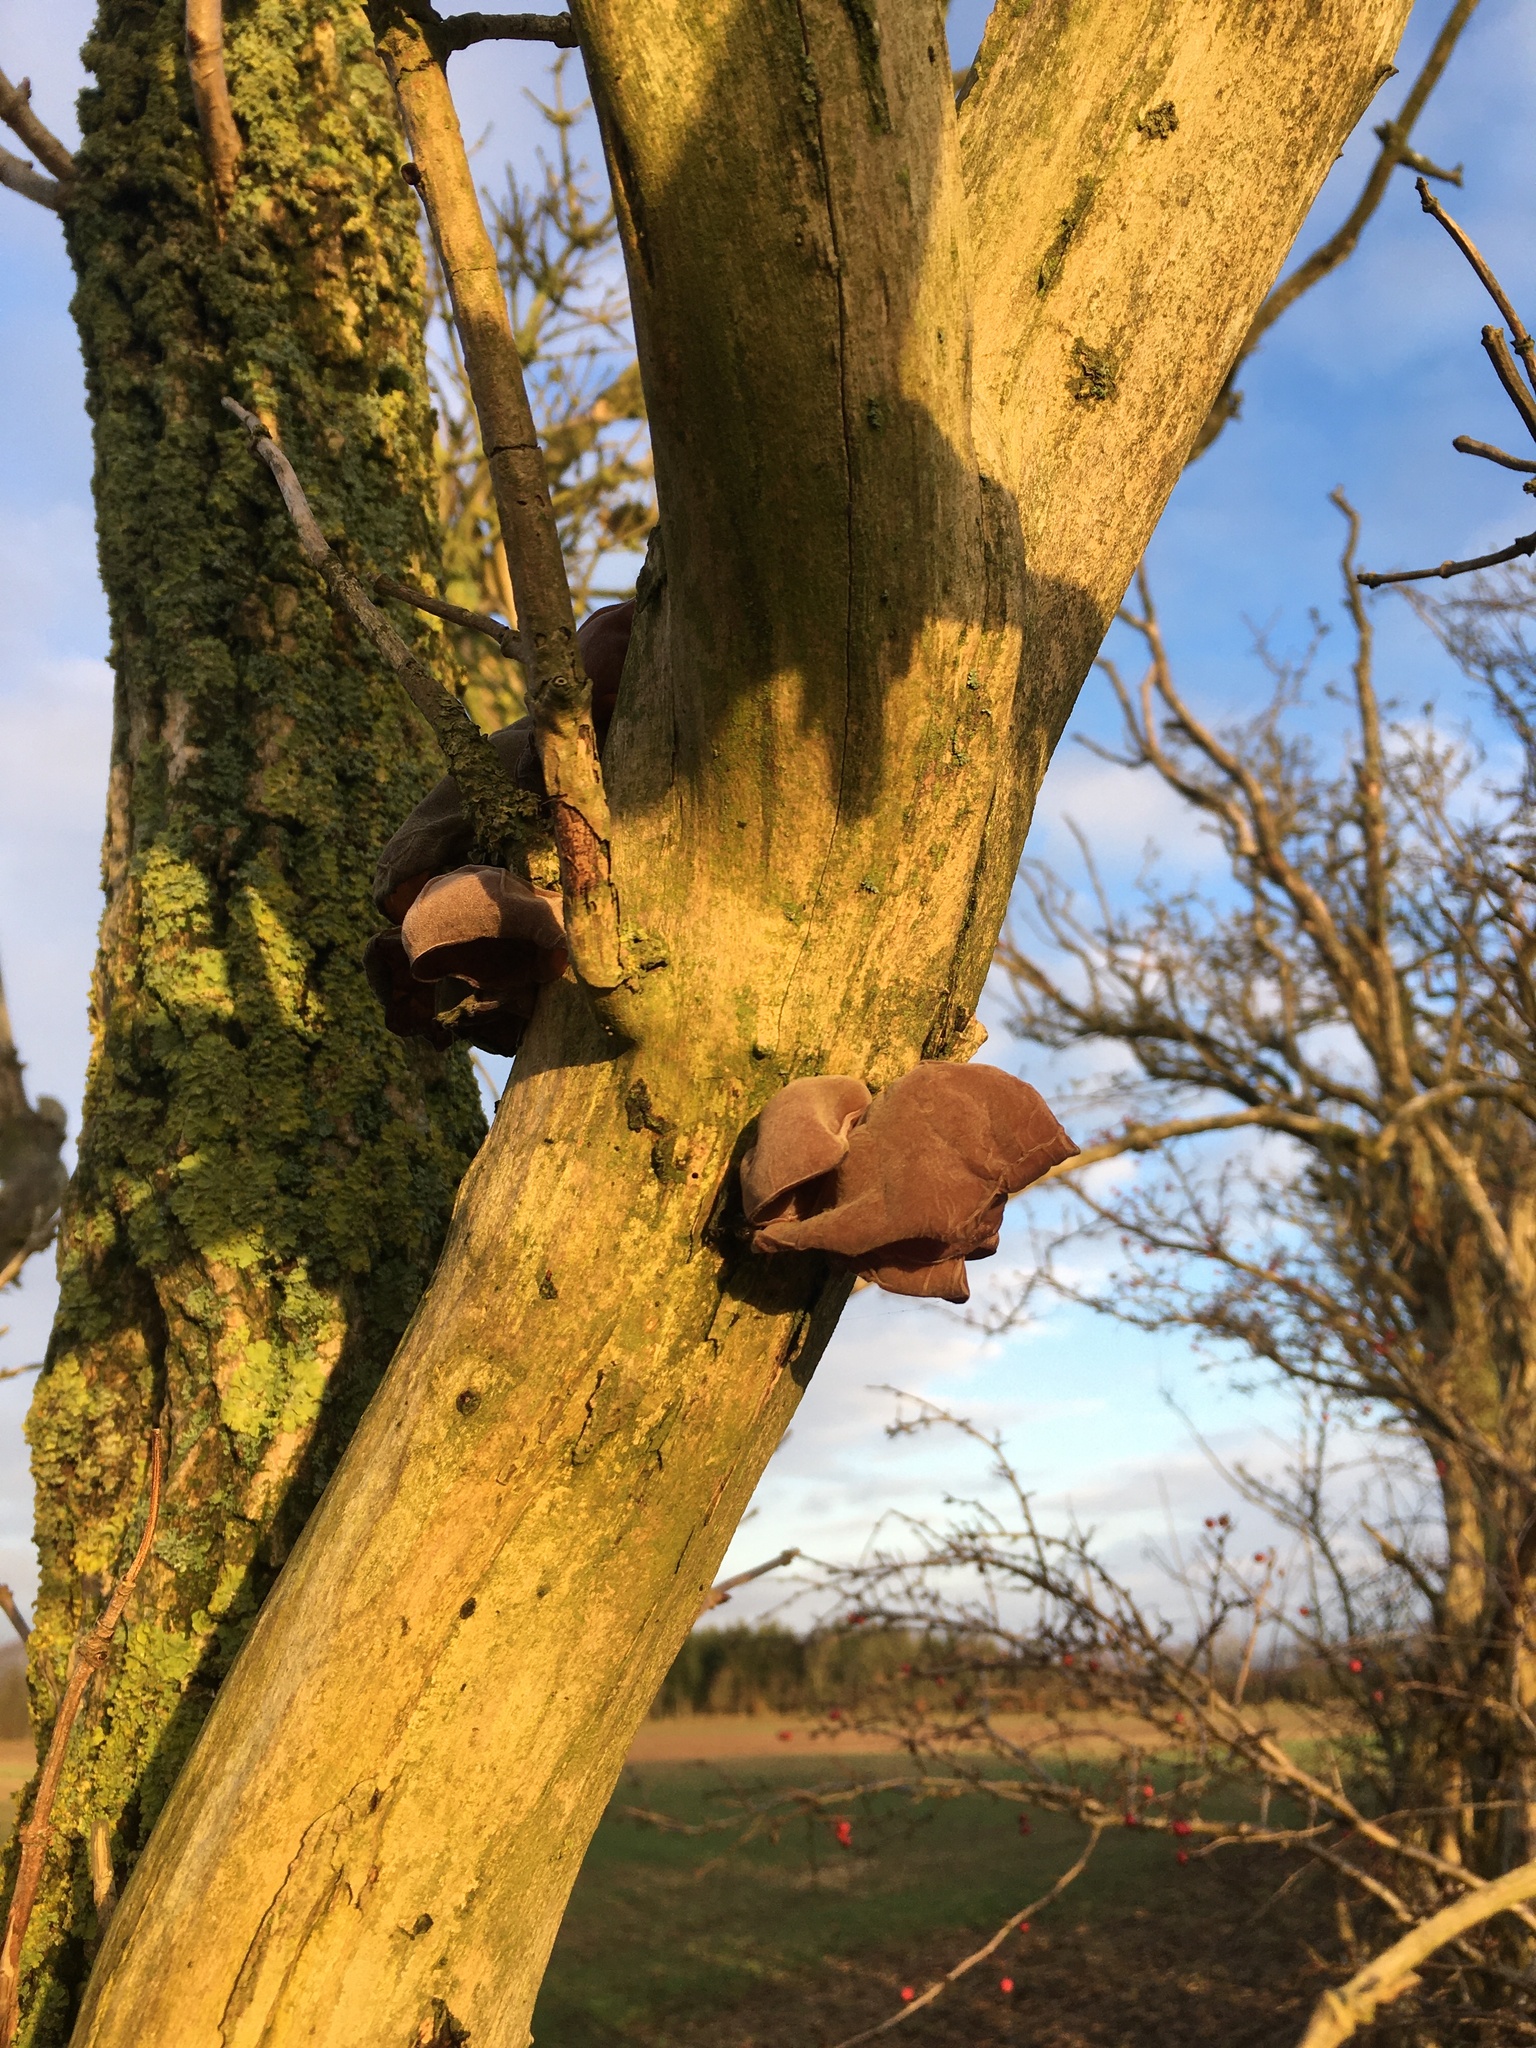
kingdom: Fungi
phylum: Basidiomycota
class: Agaricomycetes
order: Auriculariales
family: Auriculariaceae
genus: Auricularia
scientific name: Auricularia auricula-judae
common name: Jelly ear
